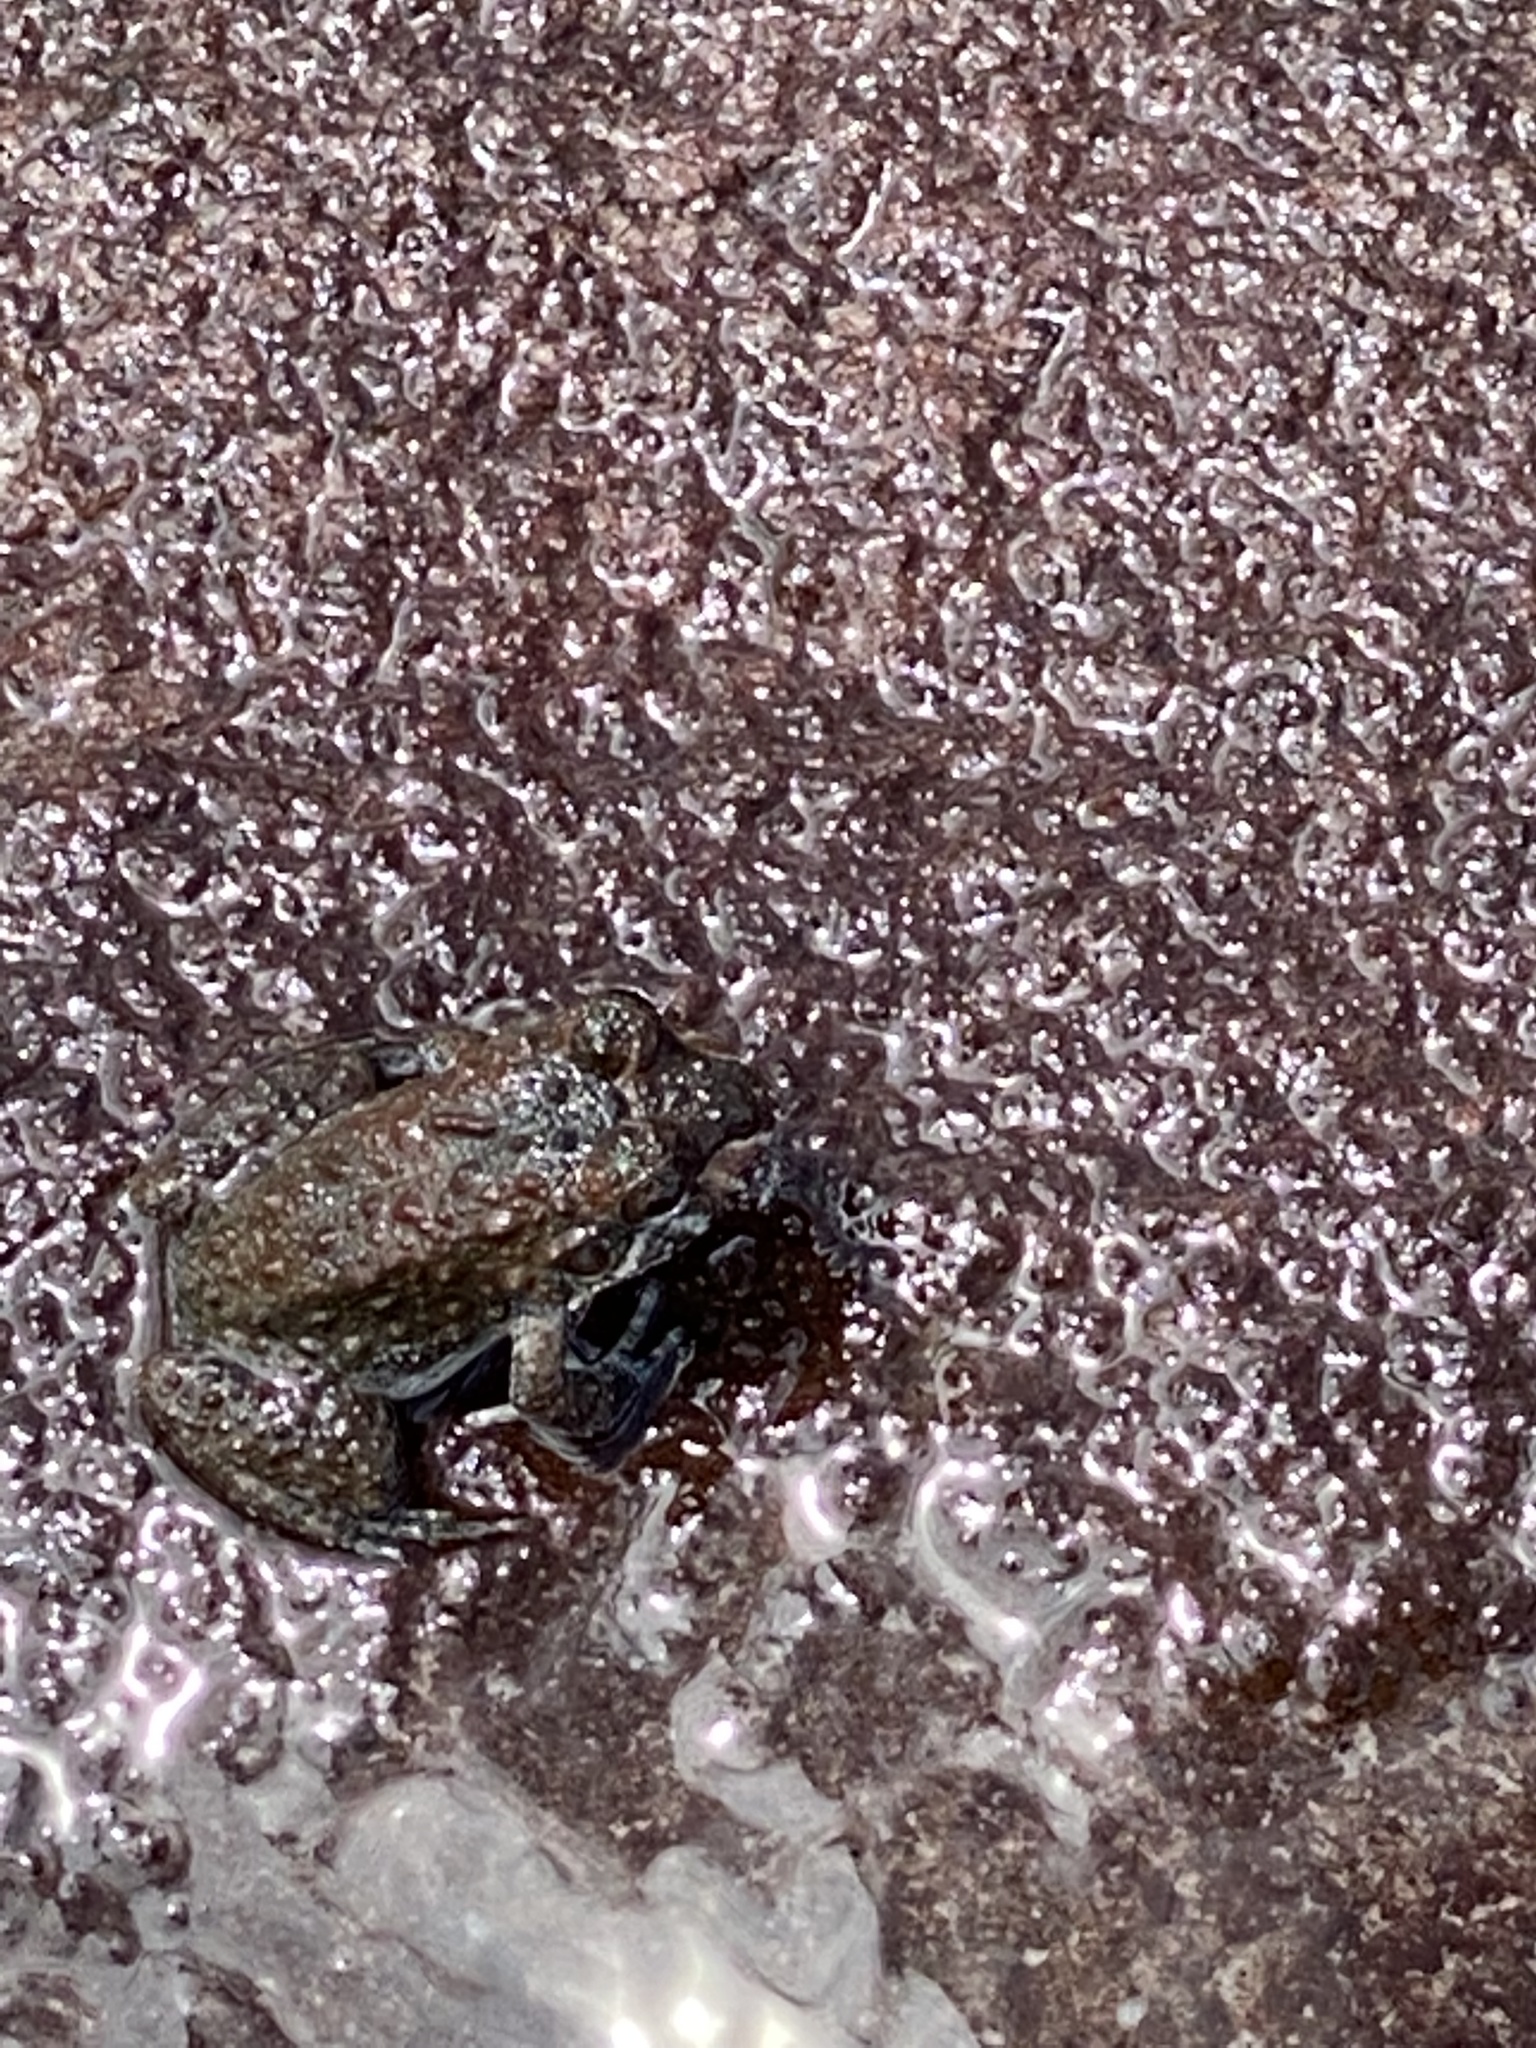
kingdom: Animalia
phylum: Chordata
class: Amphibia
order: Anura
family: Leptodactylidae
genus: Leptodactylus
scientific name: Leptodactylus rugosus
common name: Guyana white-lipped frog
